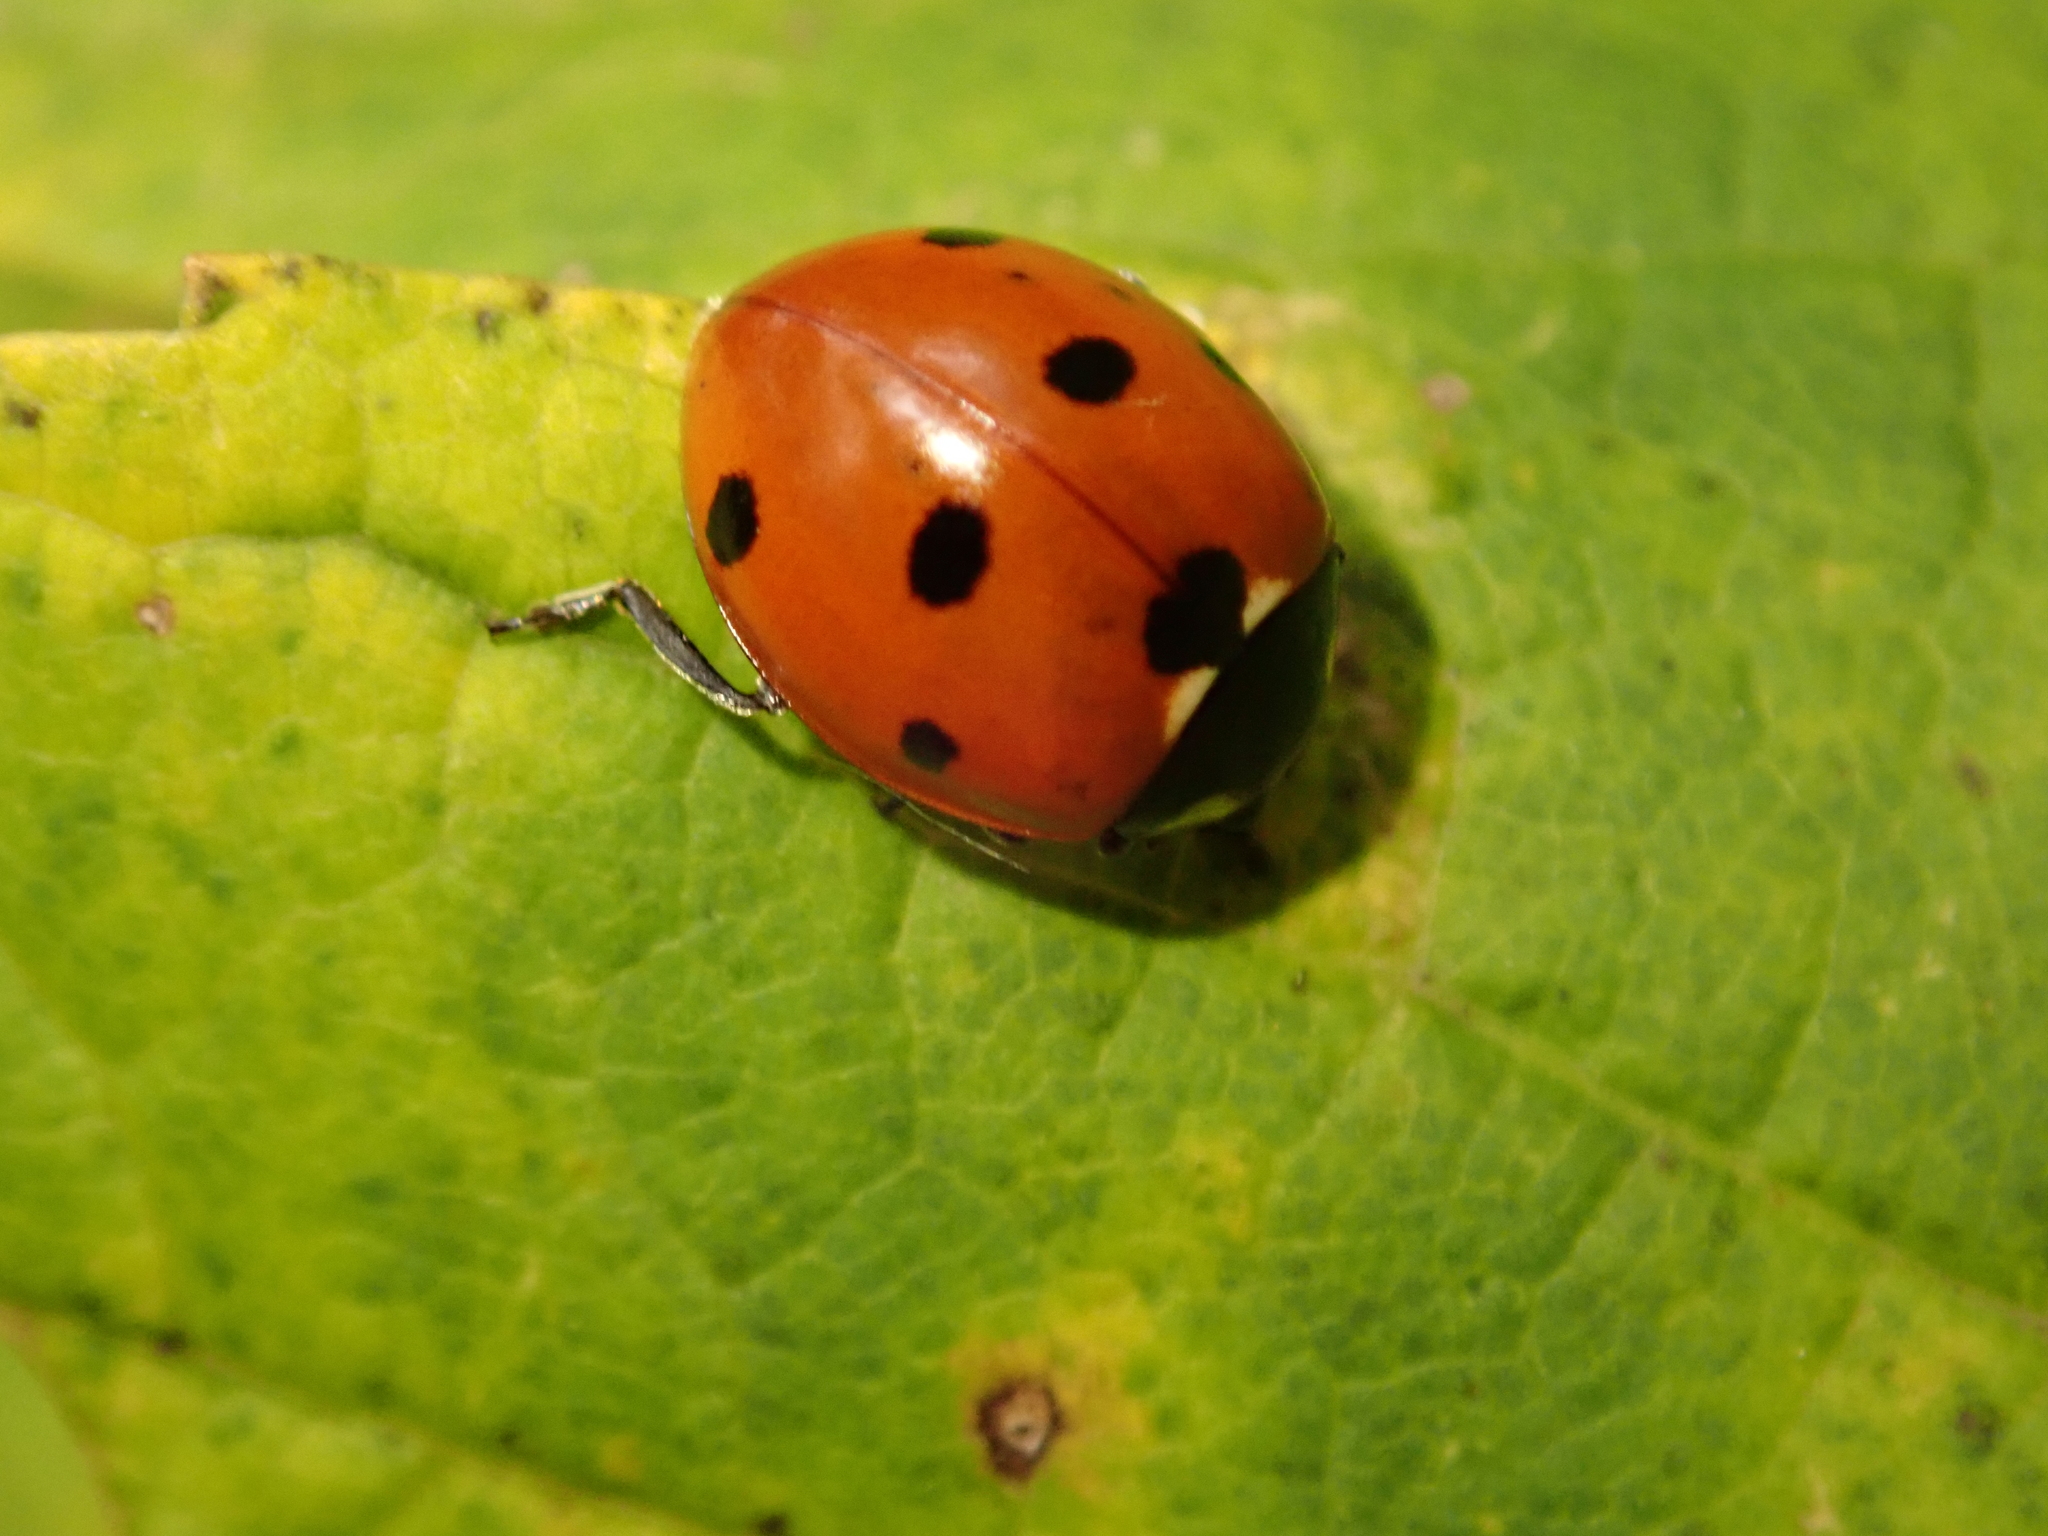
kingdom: Animalia
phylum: Arthropoda
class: Insecta
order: Coleoptera
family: Coccinellidae
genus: Coccinella
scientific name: Coccinella septempunctata
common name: Sevenspotted lady beetle
